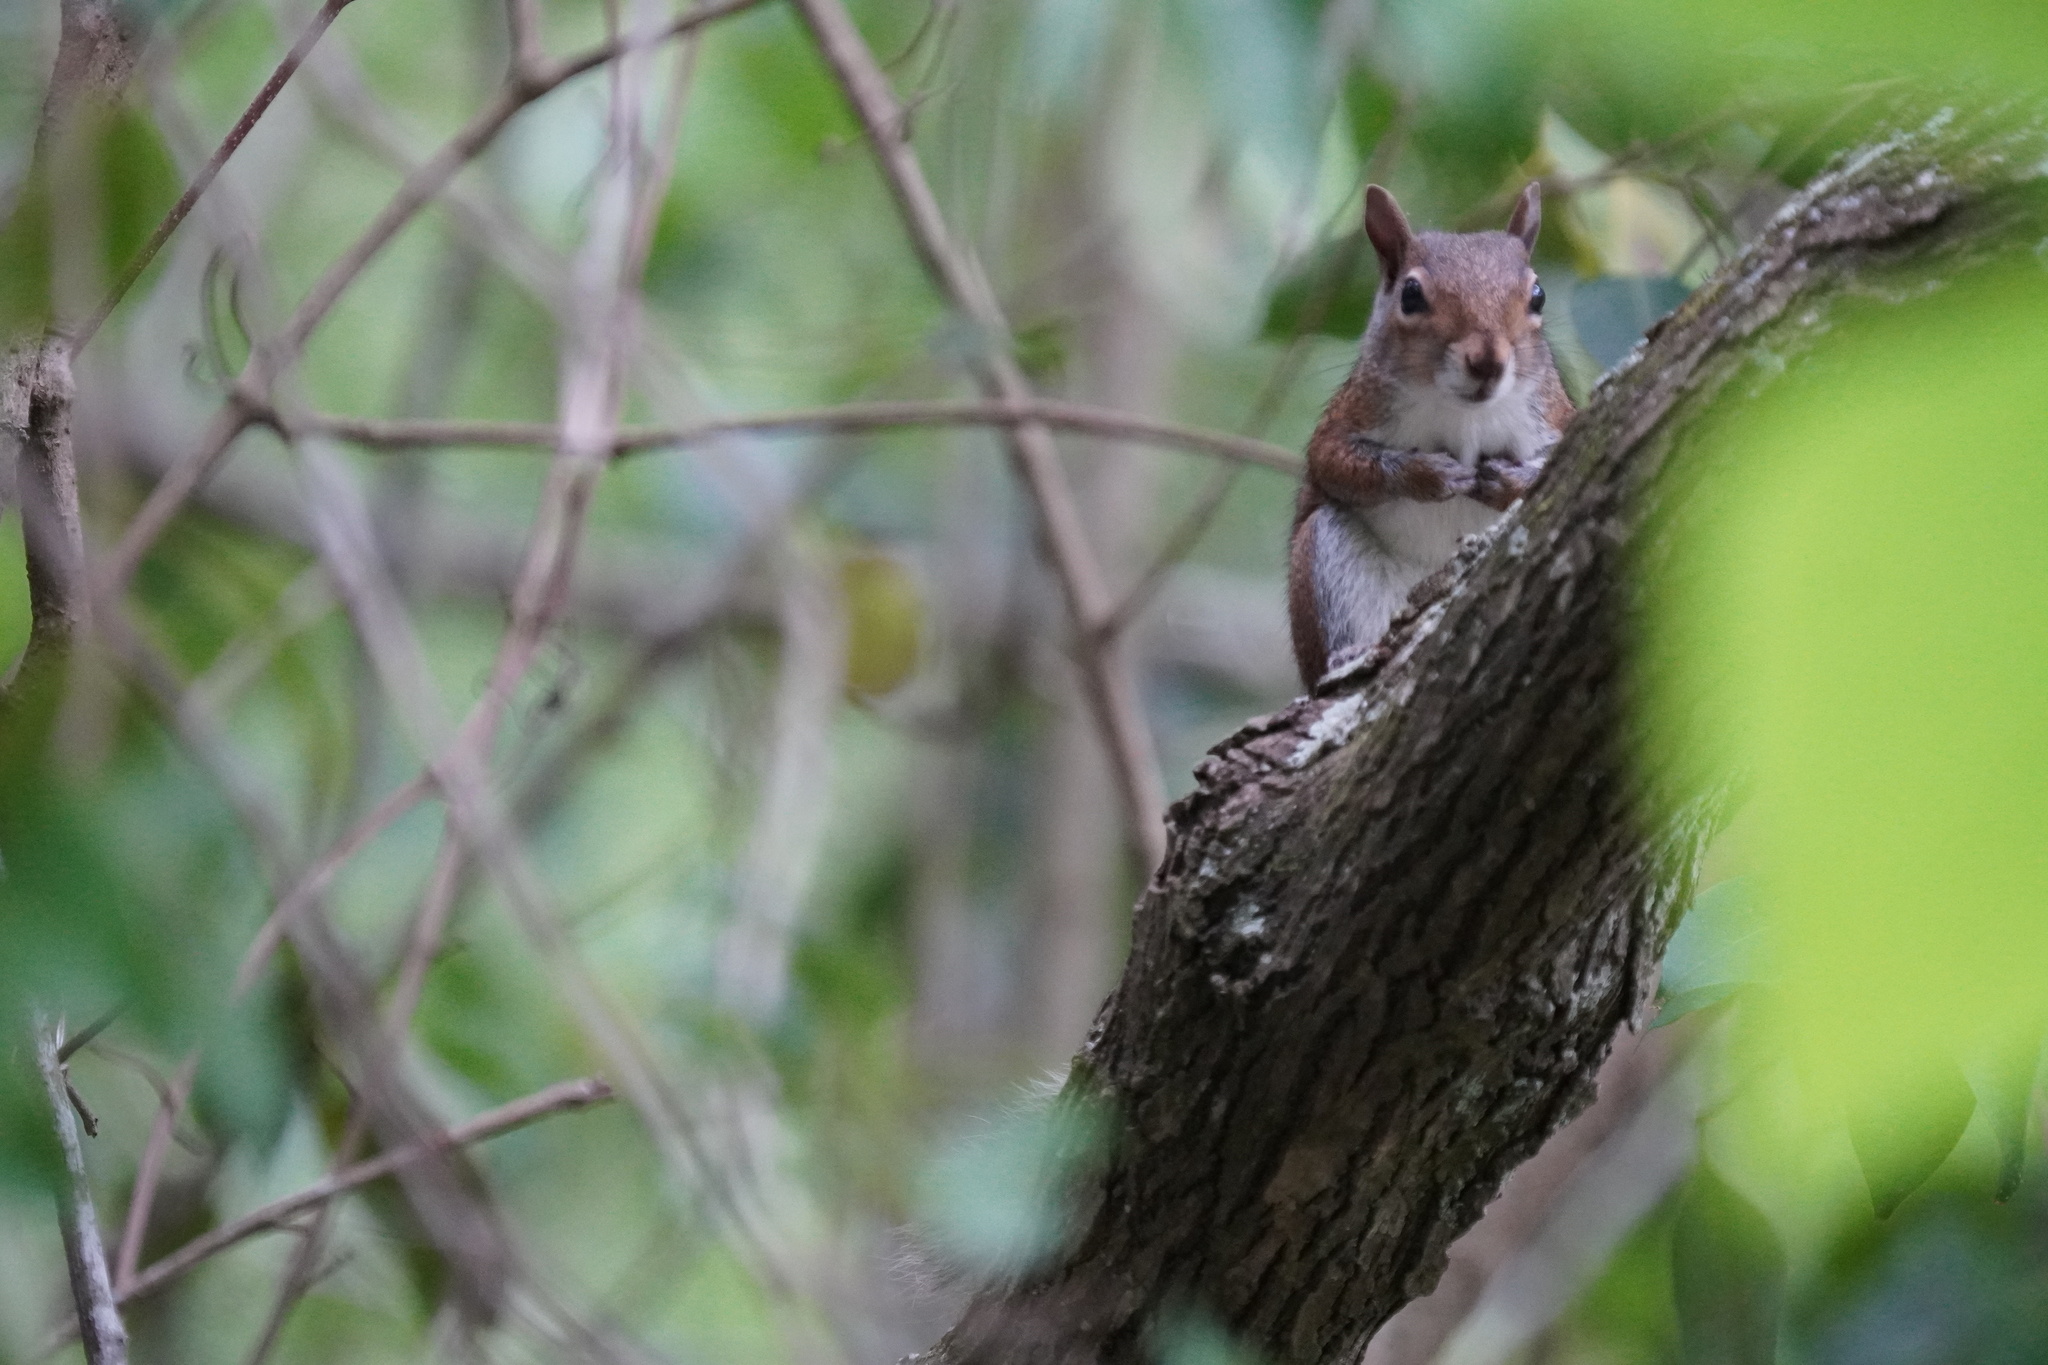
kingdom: Animalia
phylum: Chordata
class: Mammalia
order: Rodentia
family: Sciuridae
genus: Sciurus
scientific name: Sciurus carolinensis
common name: Eastern gray squirrel
